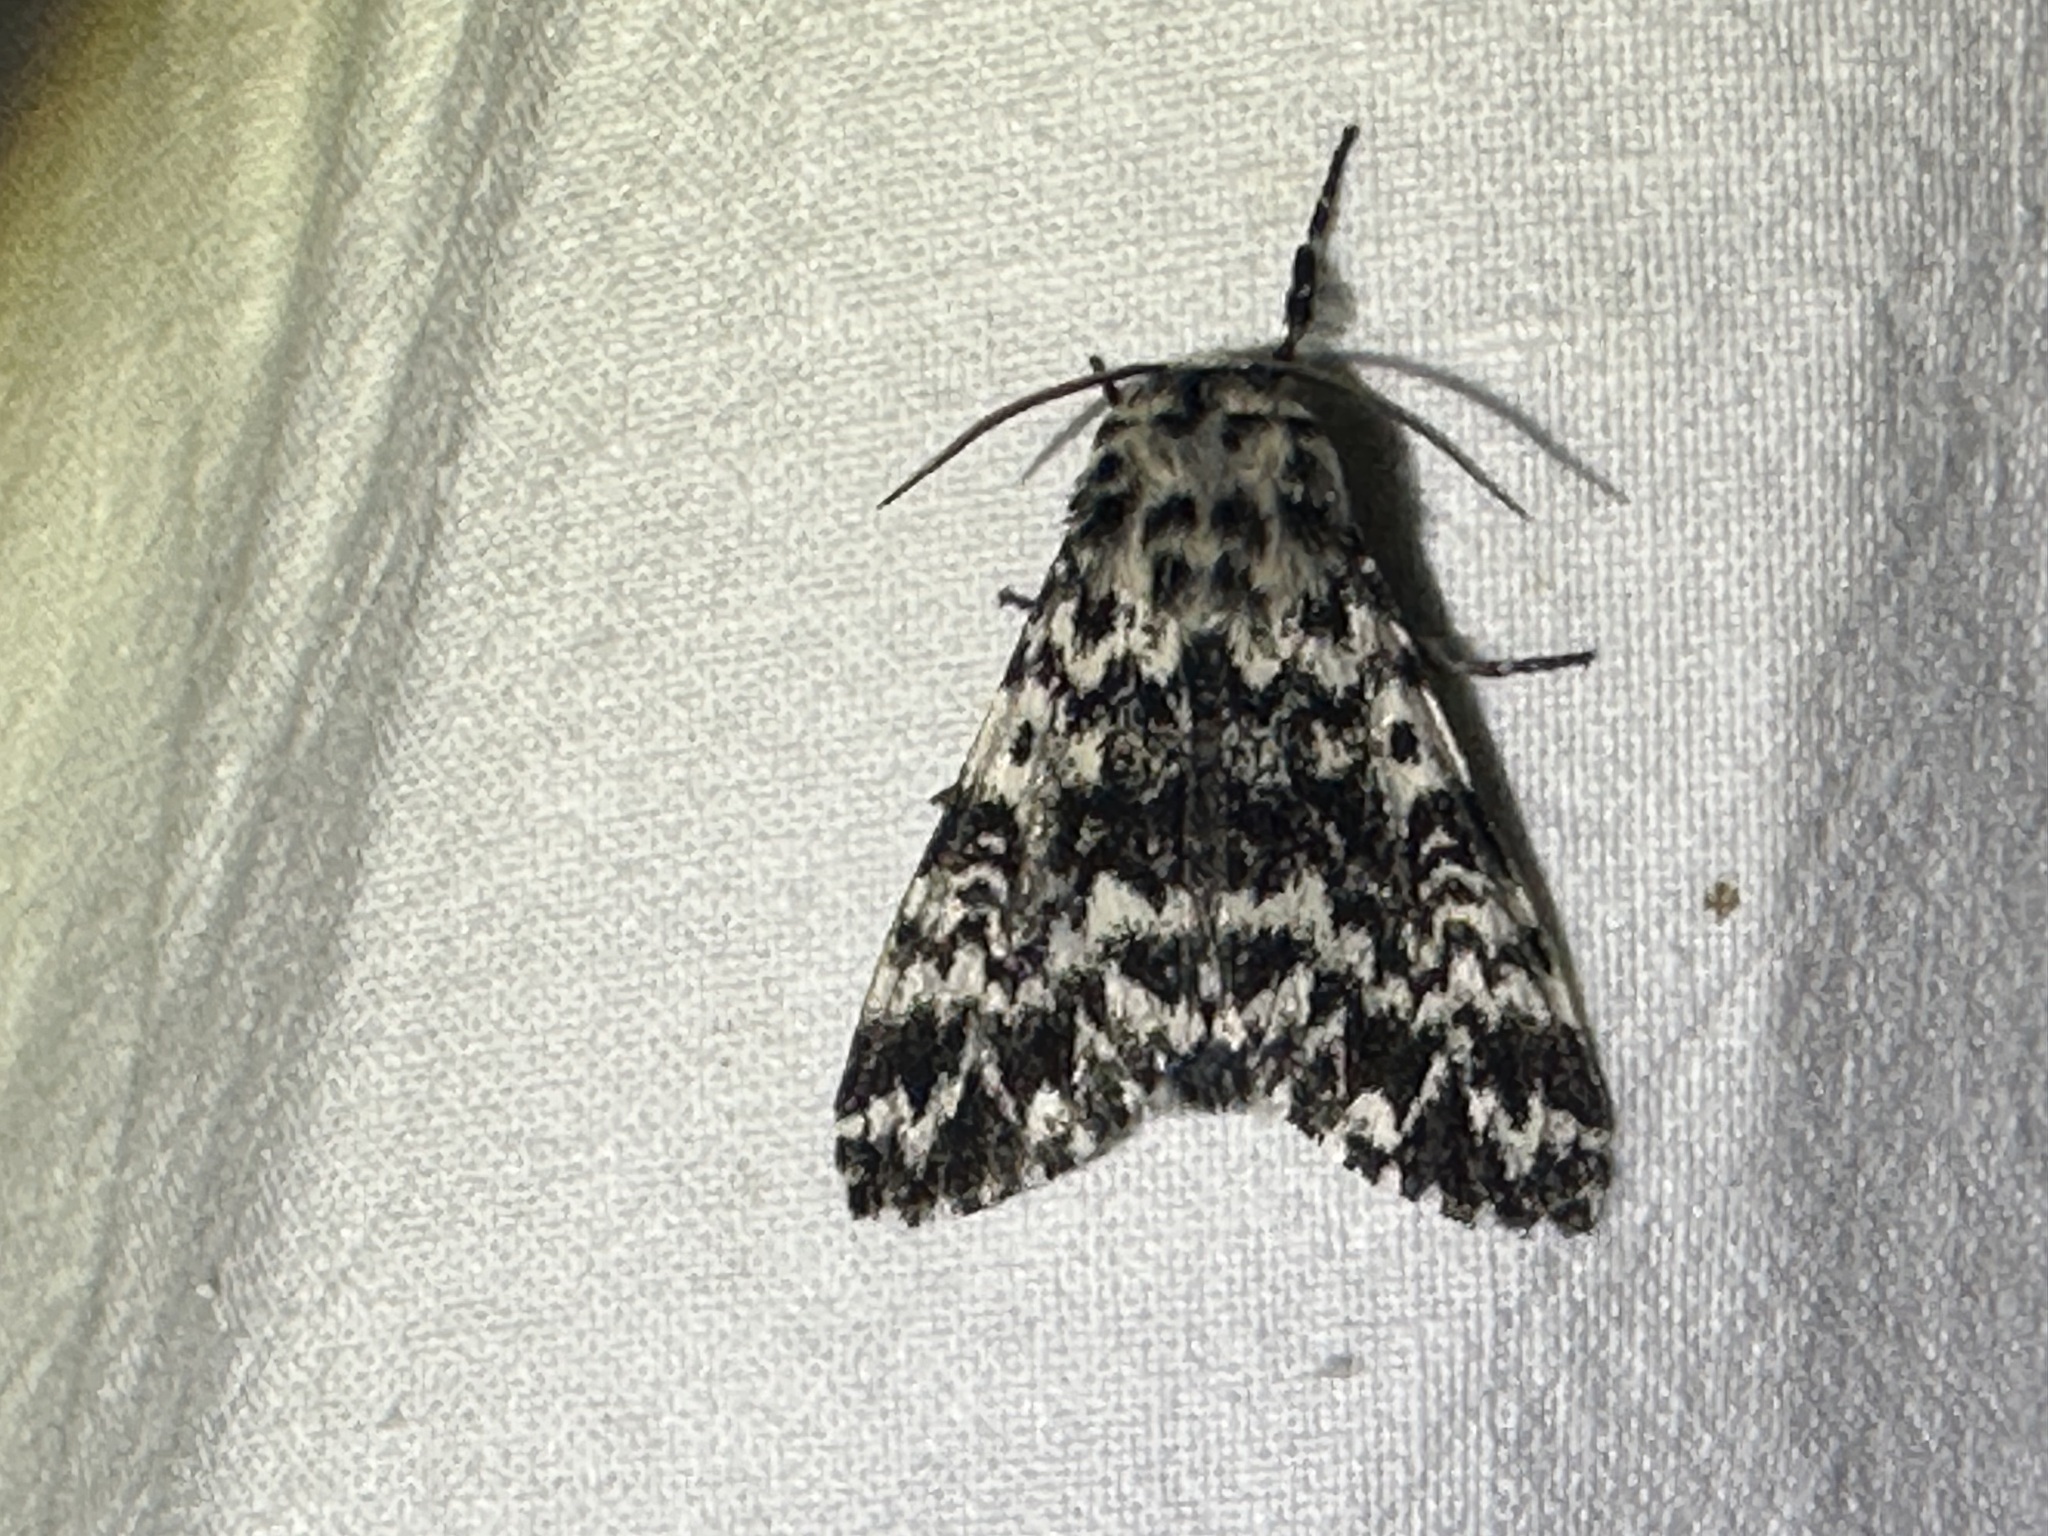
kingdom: Animalia
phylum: Arthropoda
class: Insecta
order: Lepidoptera
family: Noctuidae
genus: Panthea
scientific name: Panthea coenobita
